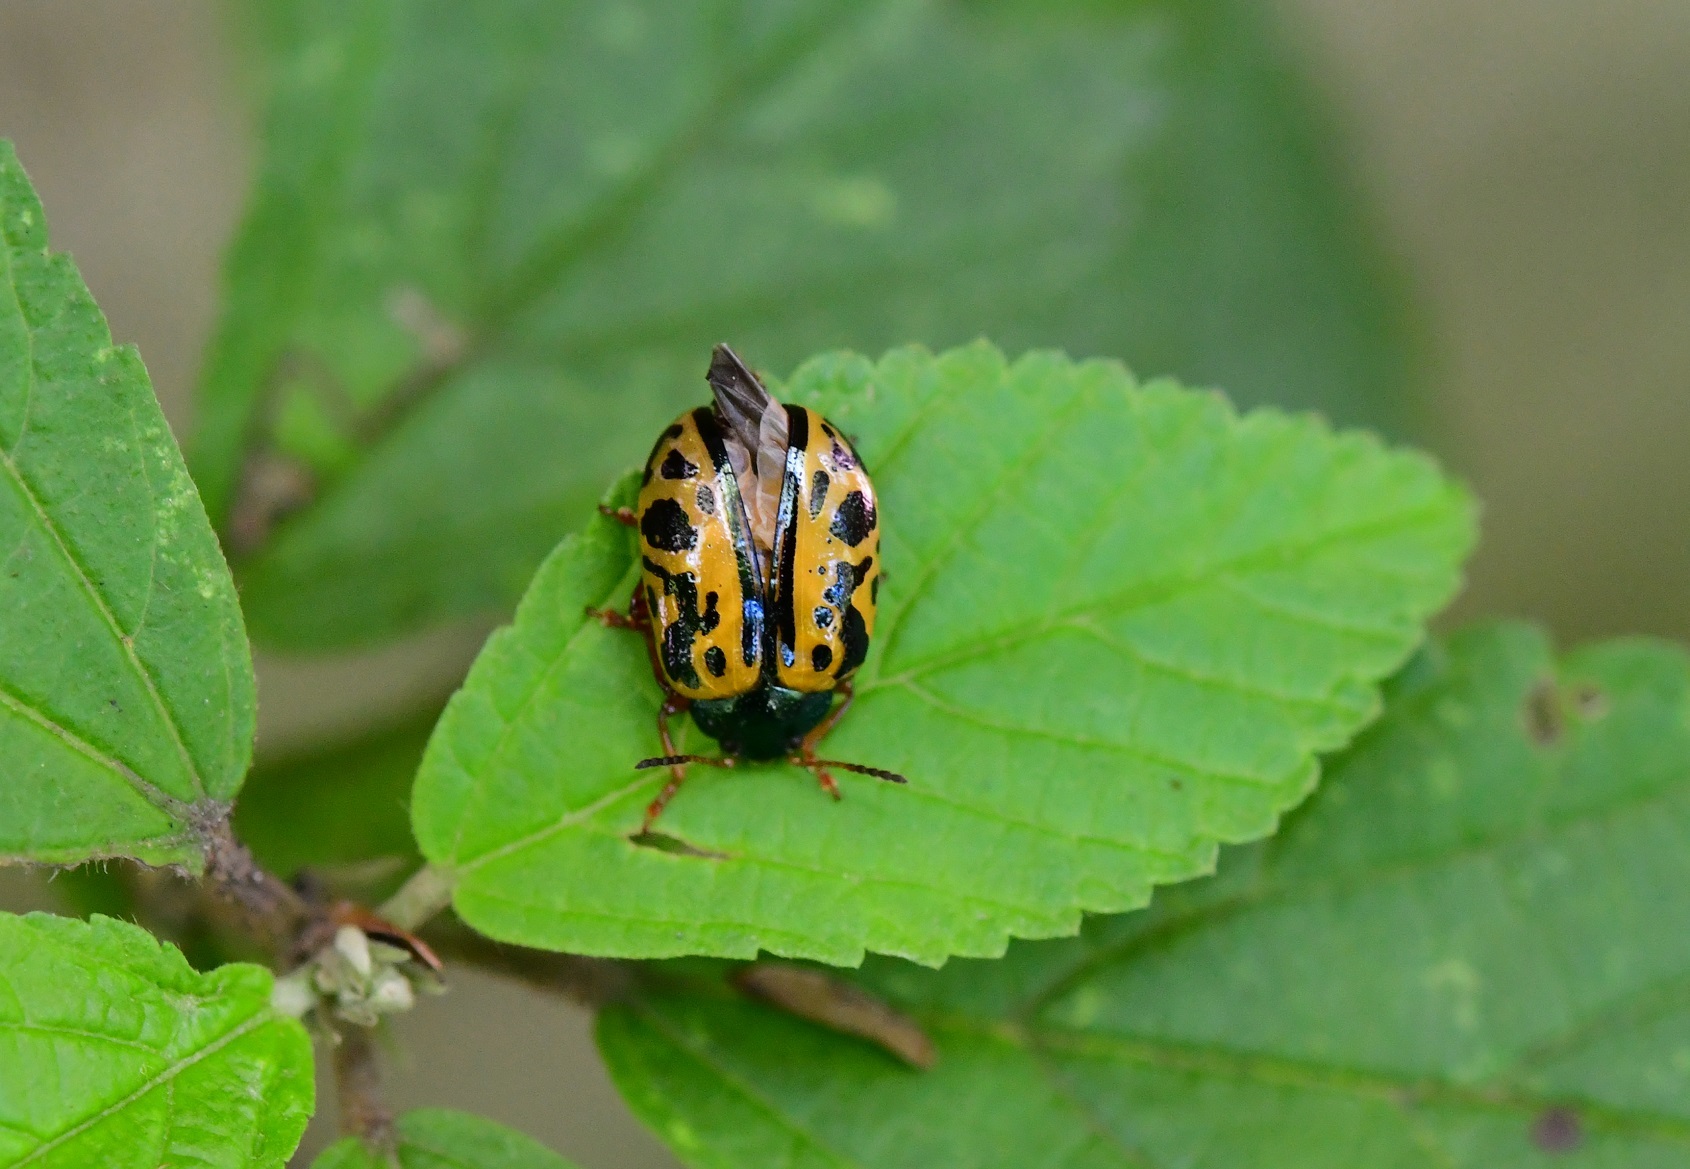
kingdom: Animalia
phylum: Arthropoda
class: Insecta
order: Coleoptera
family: Chrysomelidae
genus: Calligrapha
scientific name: Calligrapha fulvipes
